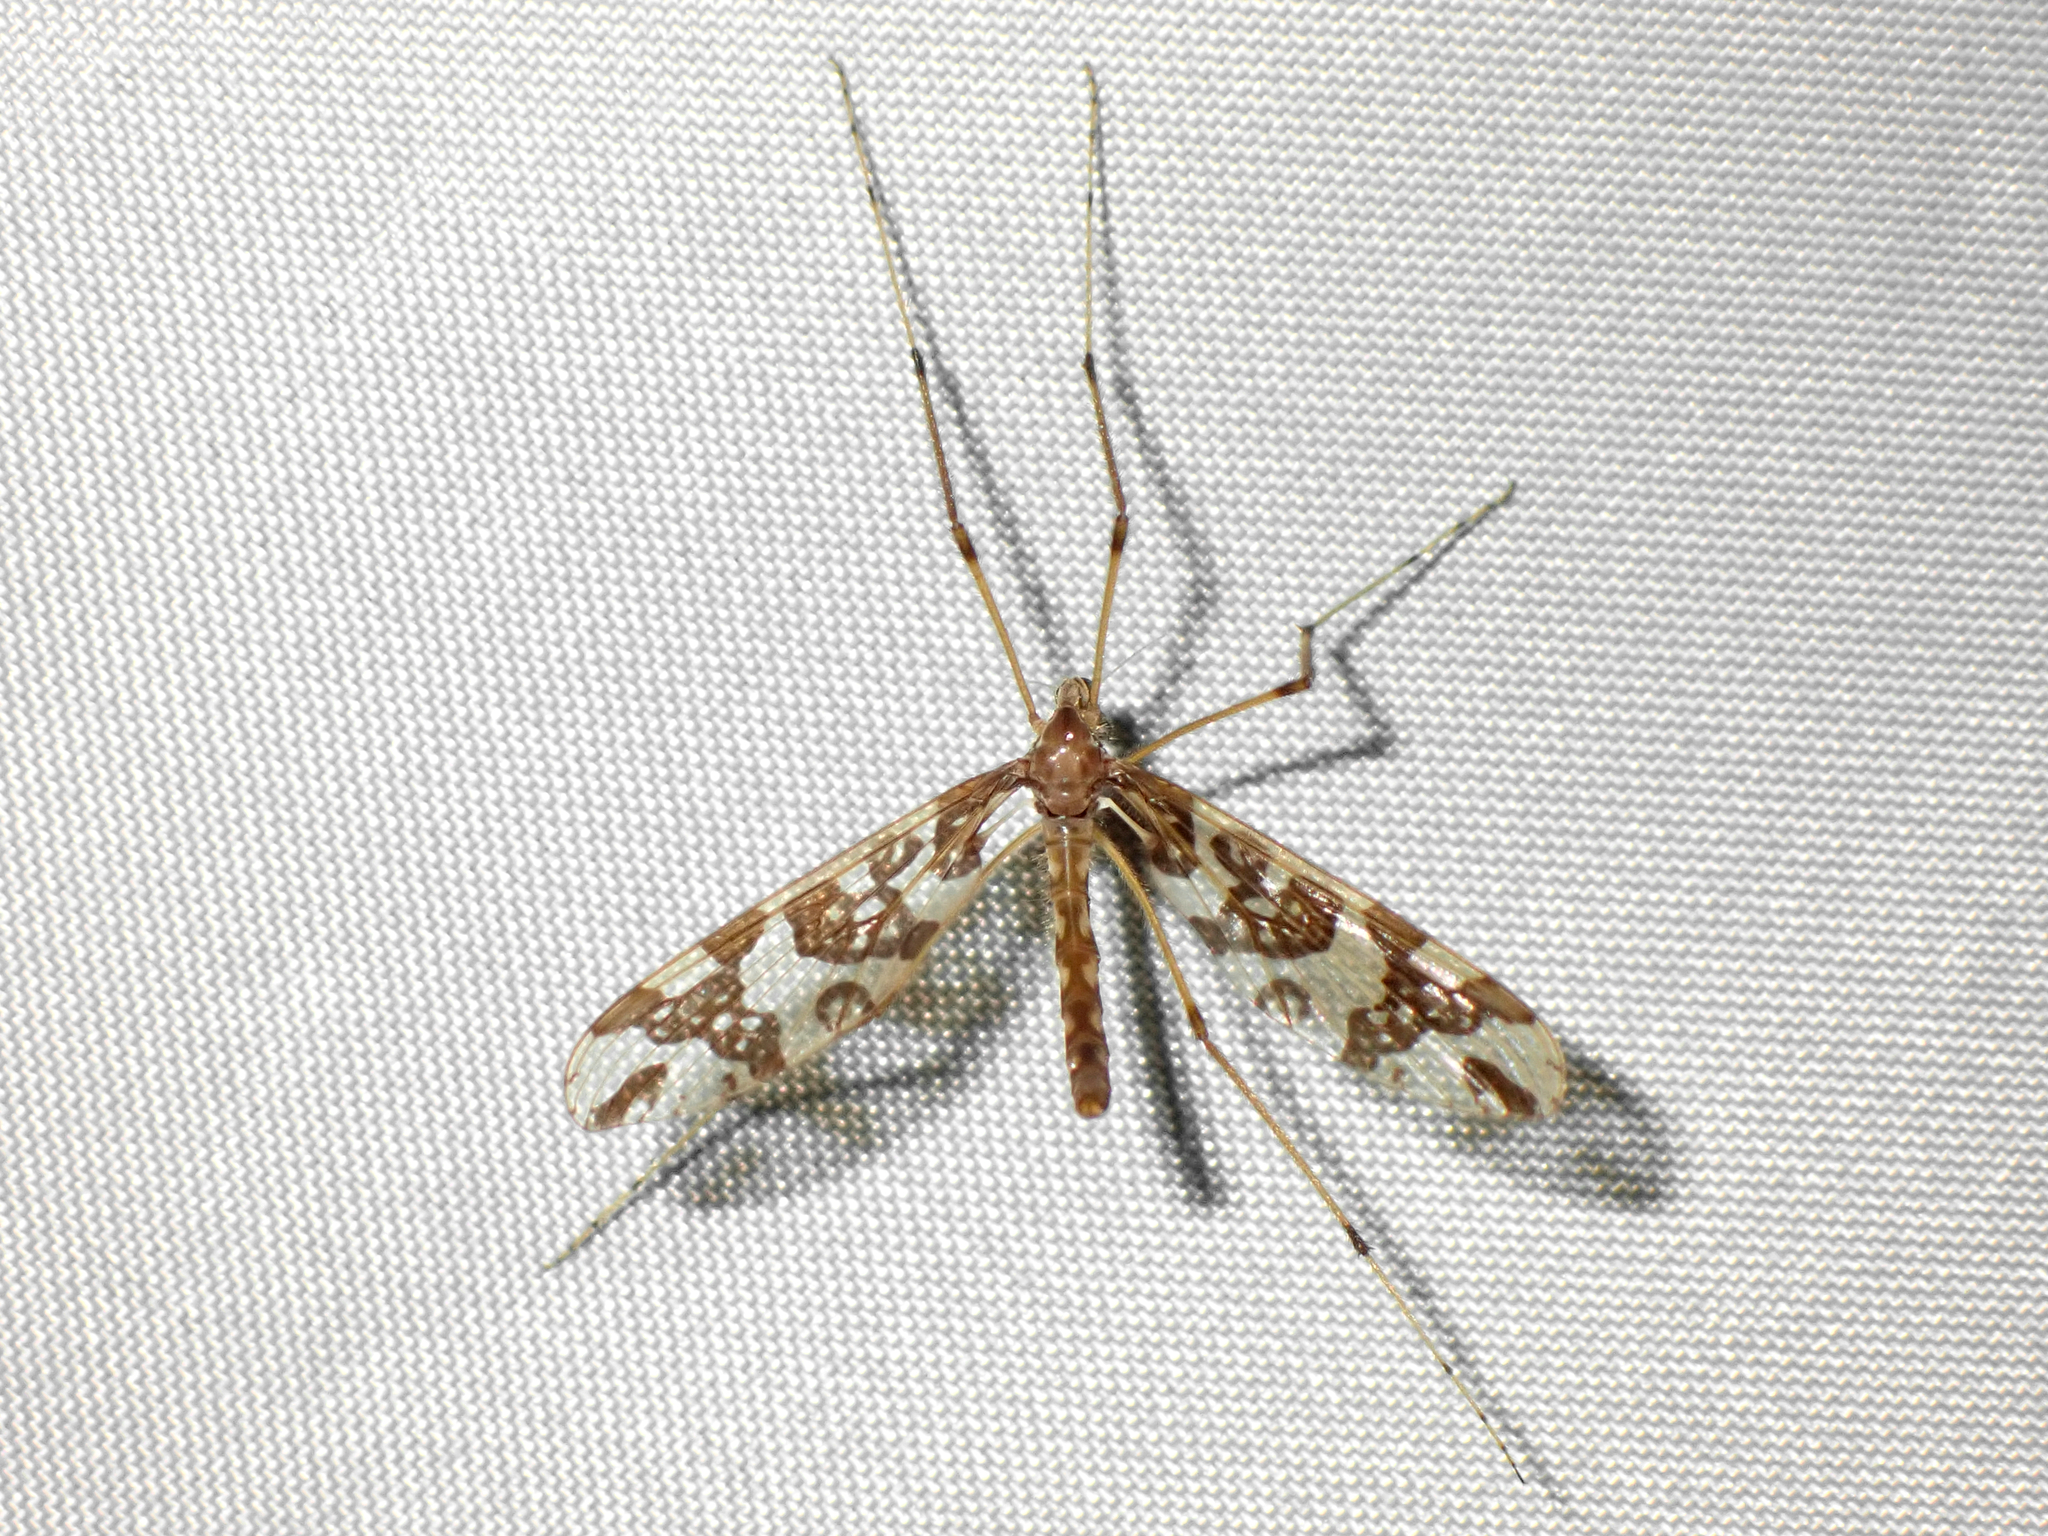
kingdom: Animalia
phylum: Arthropoda
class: Insecta
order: Diptera
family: Tanyderidae
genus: Tanyderus
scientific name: Tanyderus annuliferus
